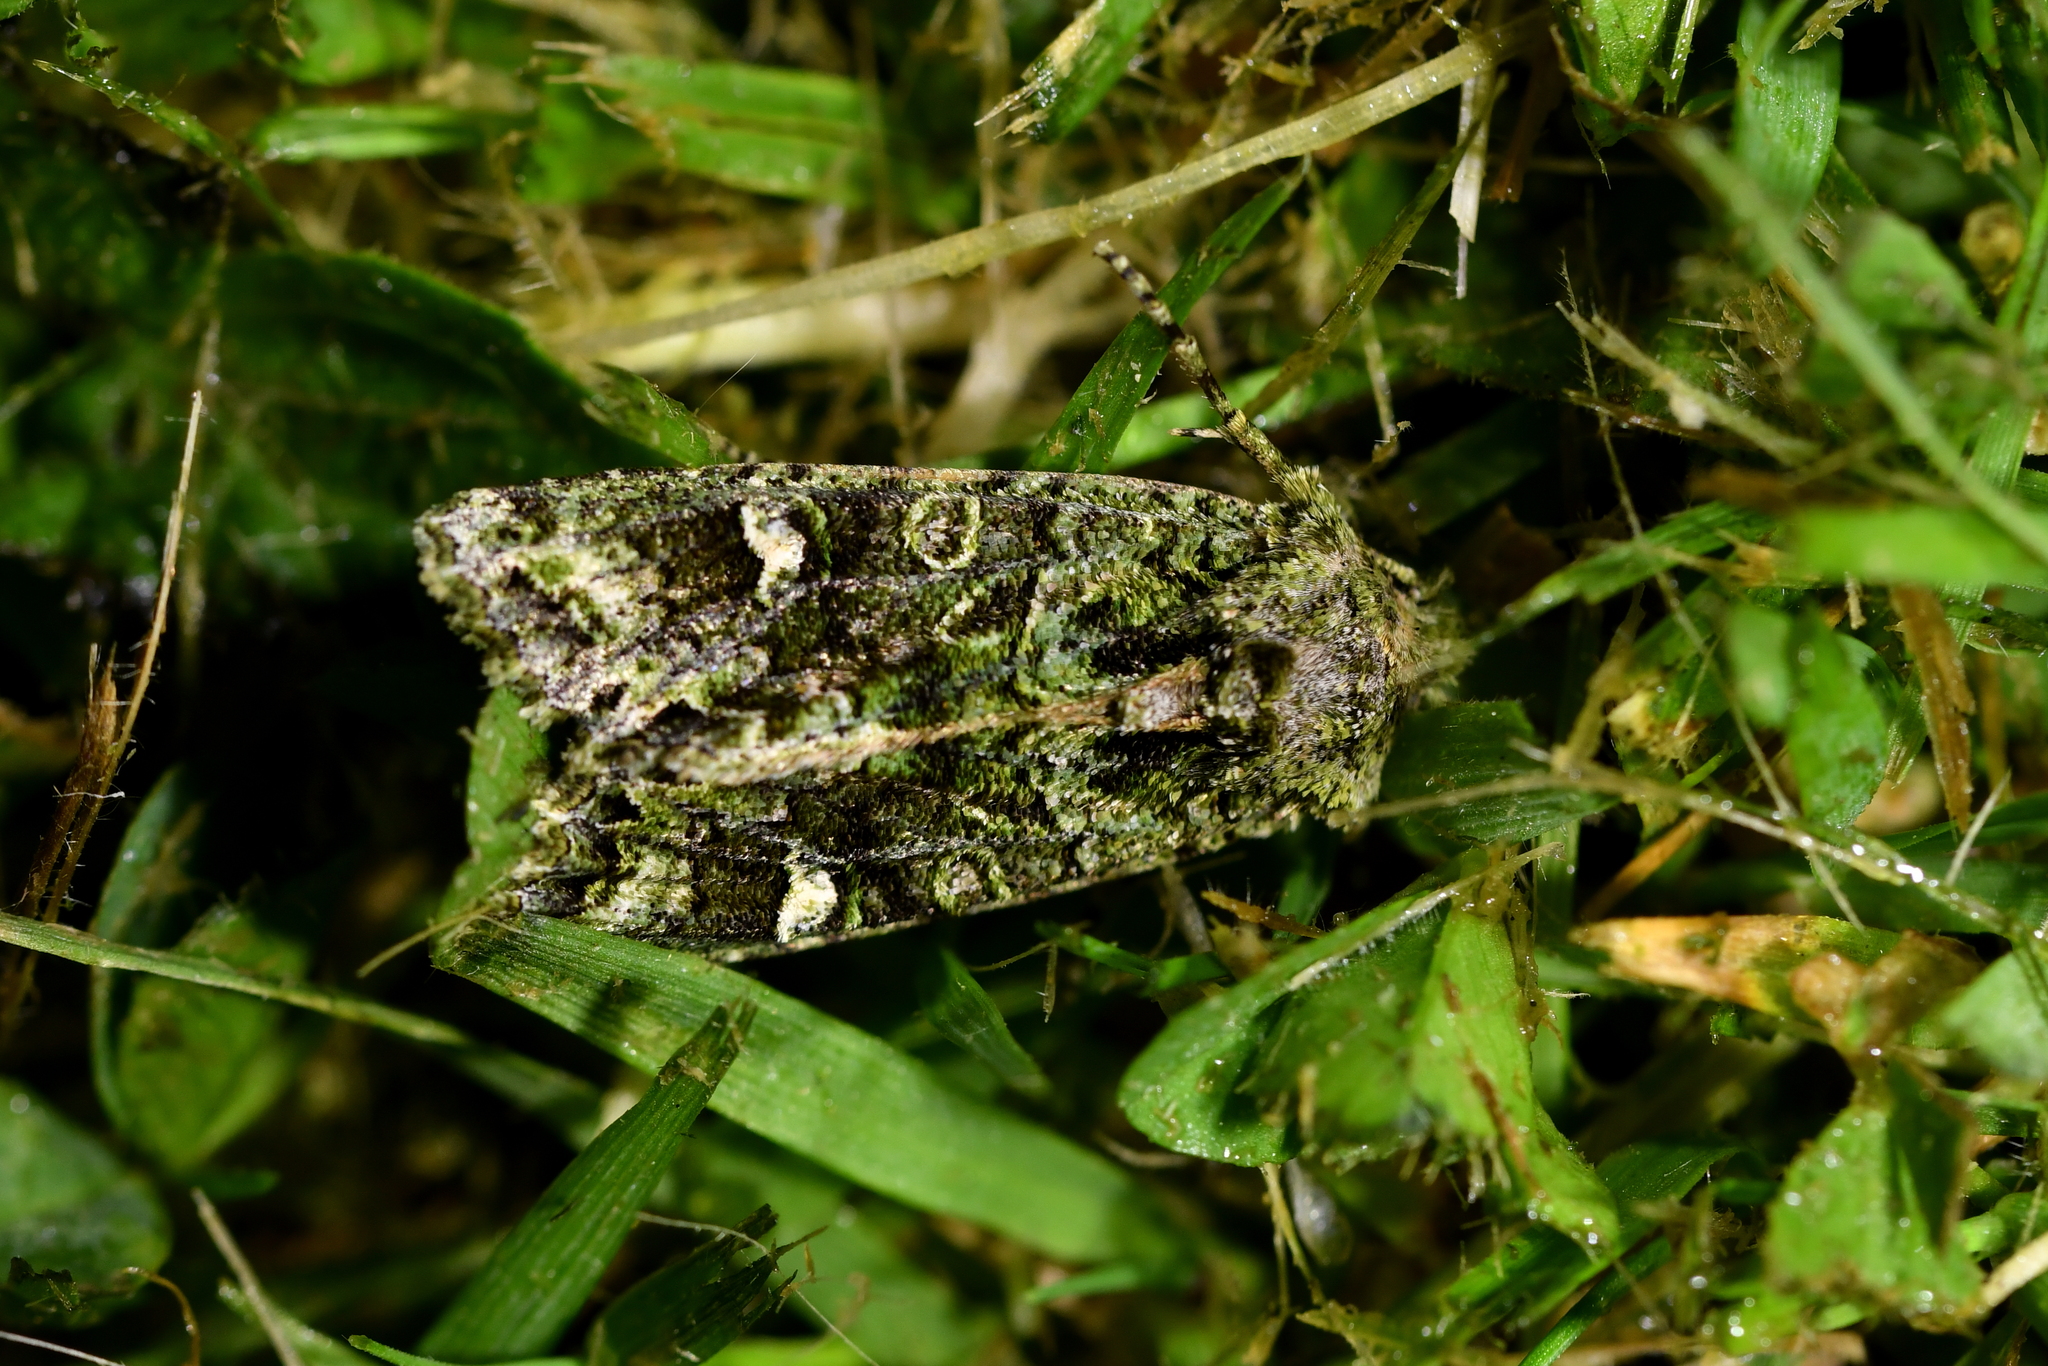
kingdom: Animalia
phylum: Arthropoda
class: Insecta
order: Lepidoptera
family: Noctuidae
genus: Ichneutica
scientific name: Ichneutica
